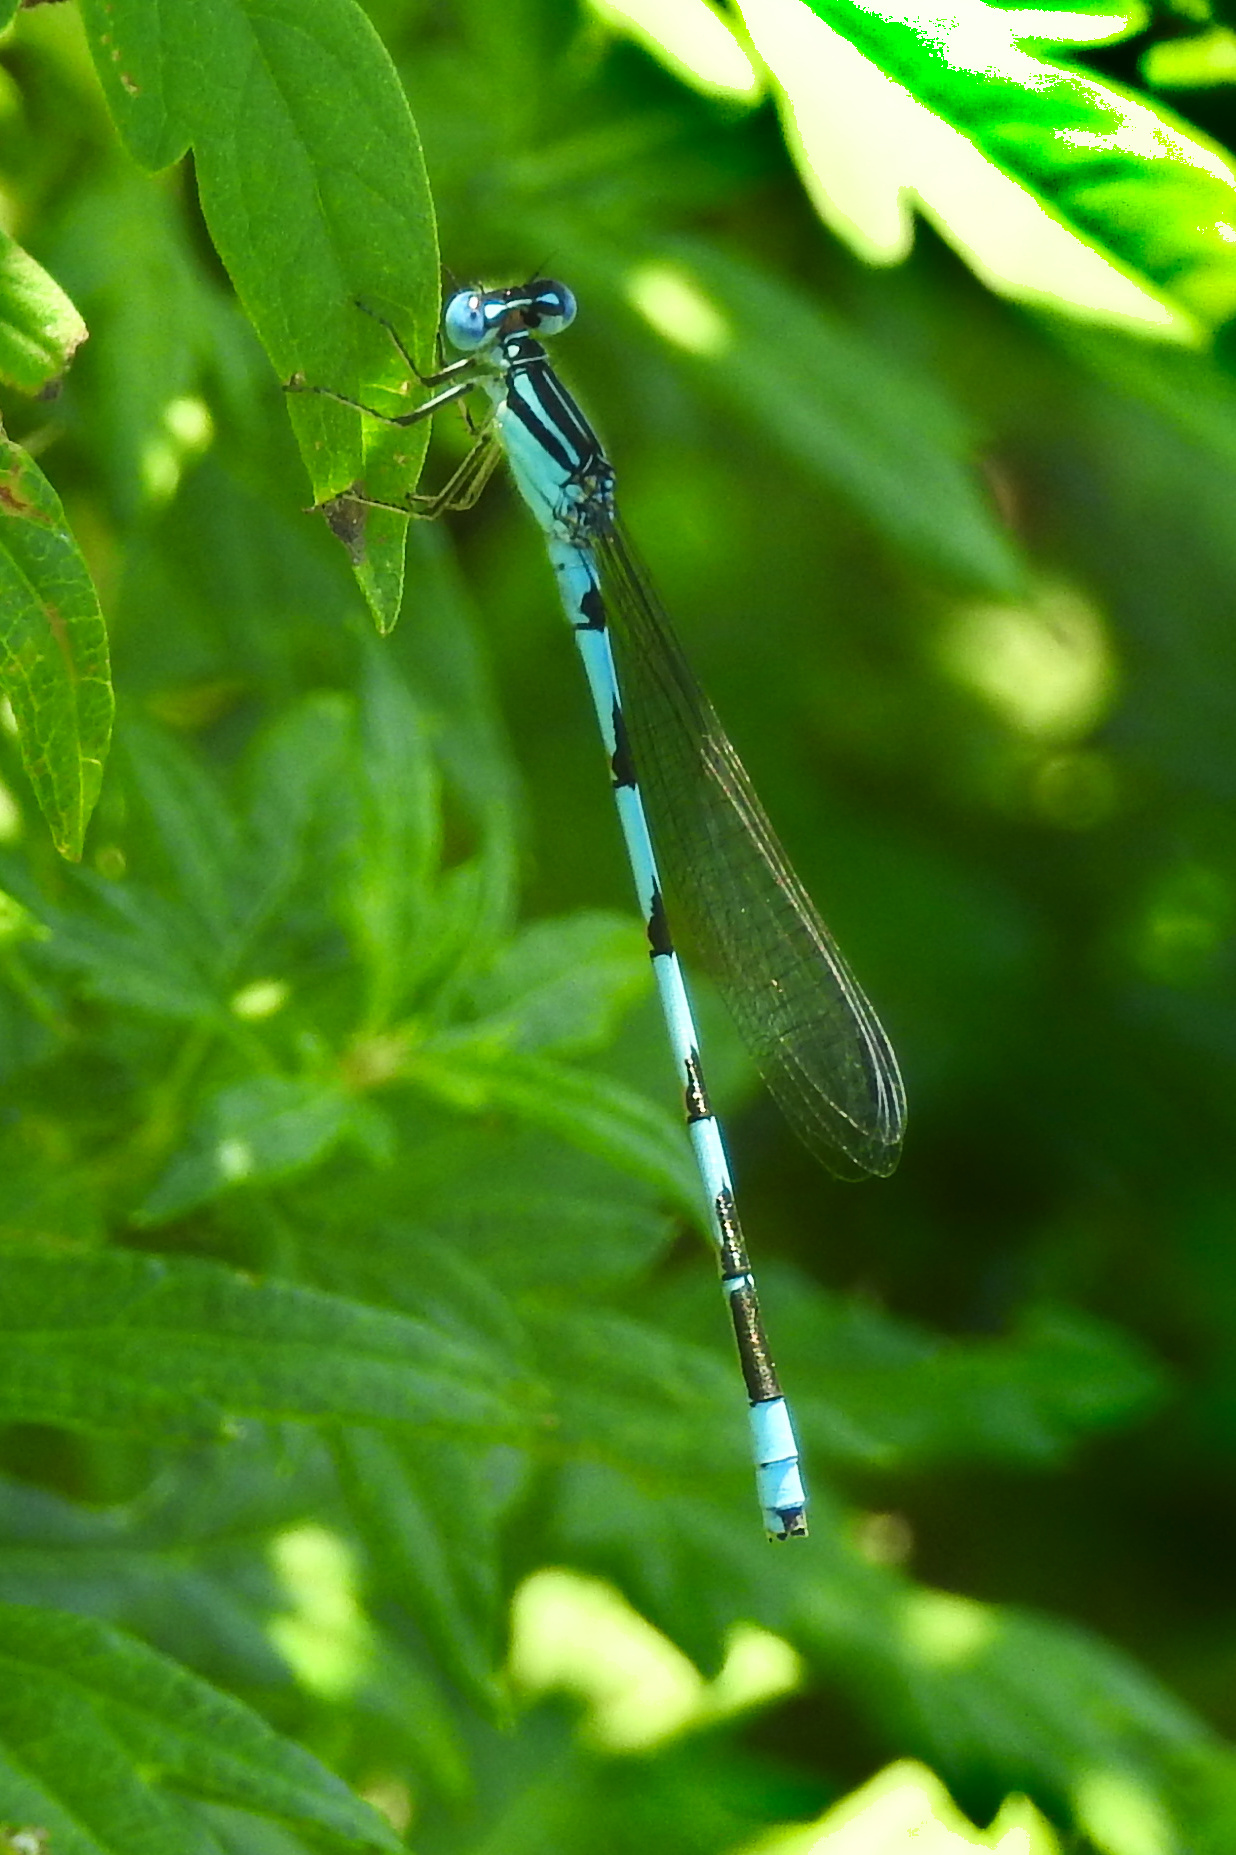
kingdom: Animalia
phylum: Arthropoda
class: Insecta
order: Odonata
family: Coenagrionidae
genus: Enallagma
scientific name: Enallagma durum
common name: Big bluet
